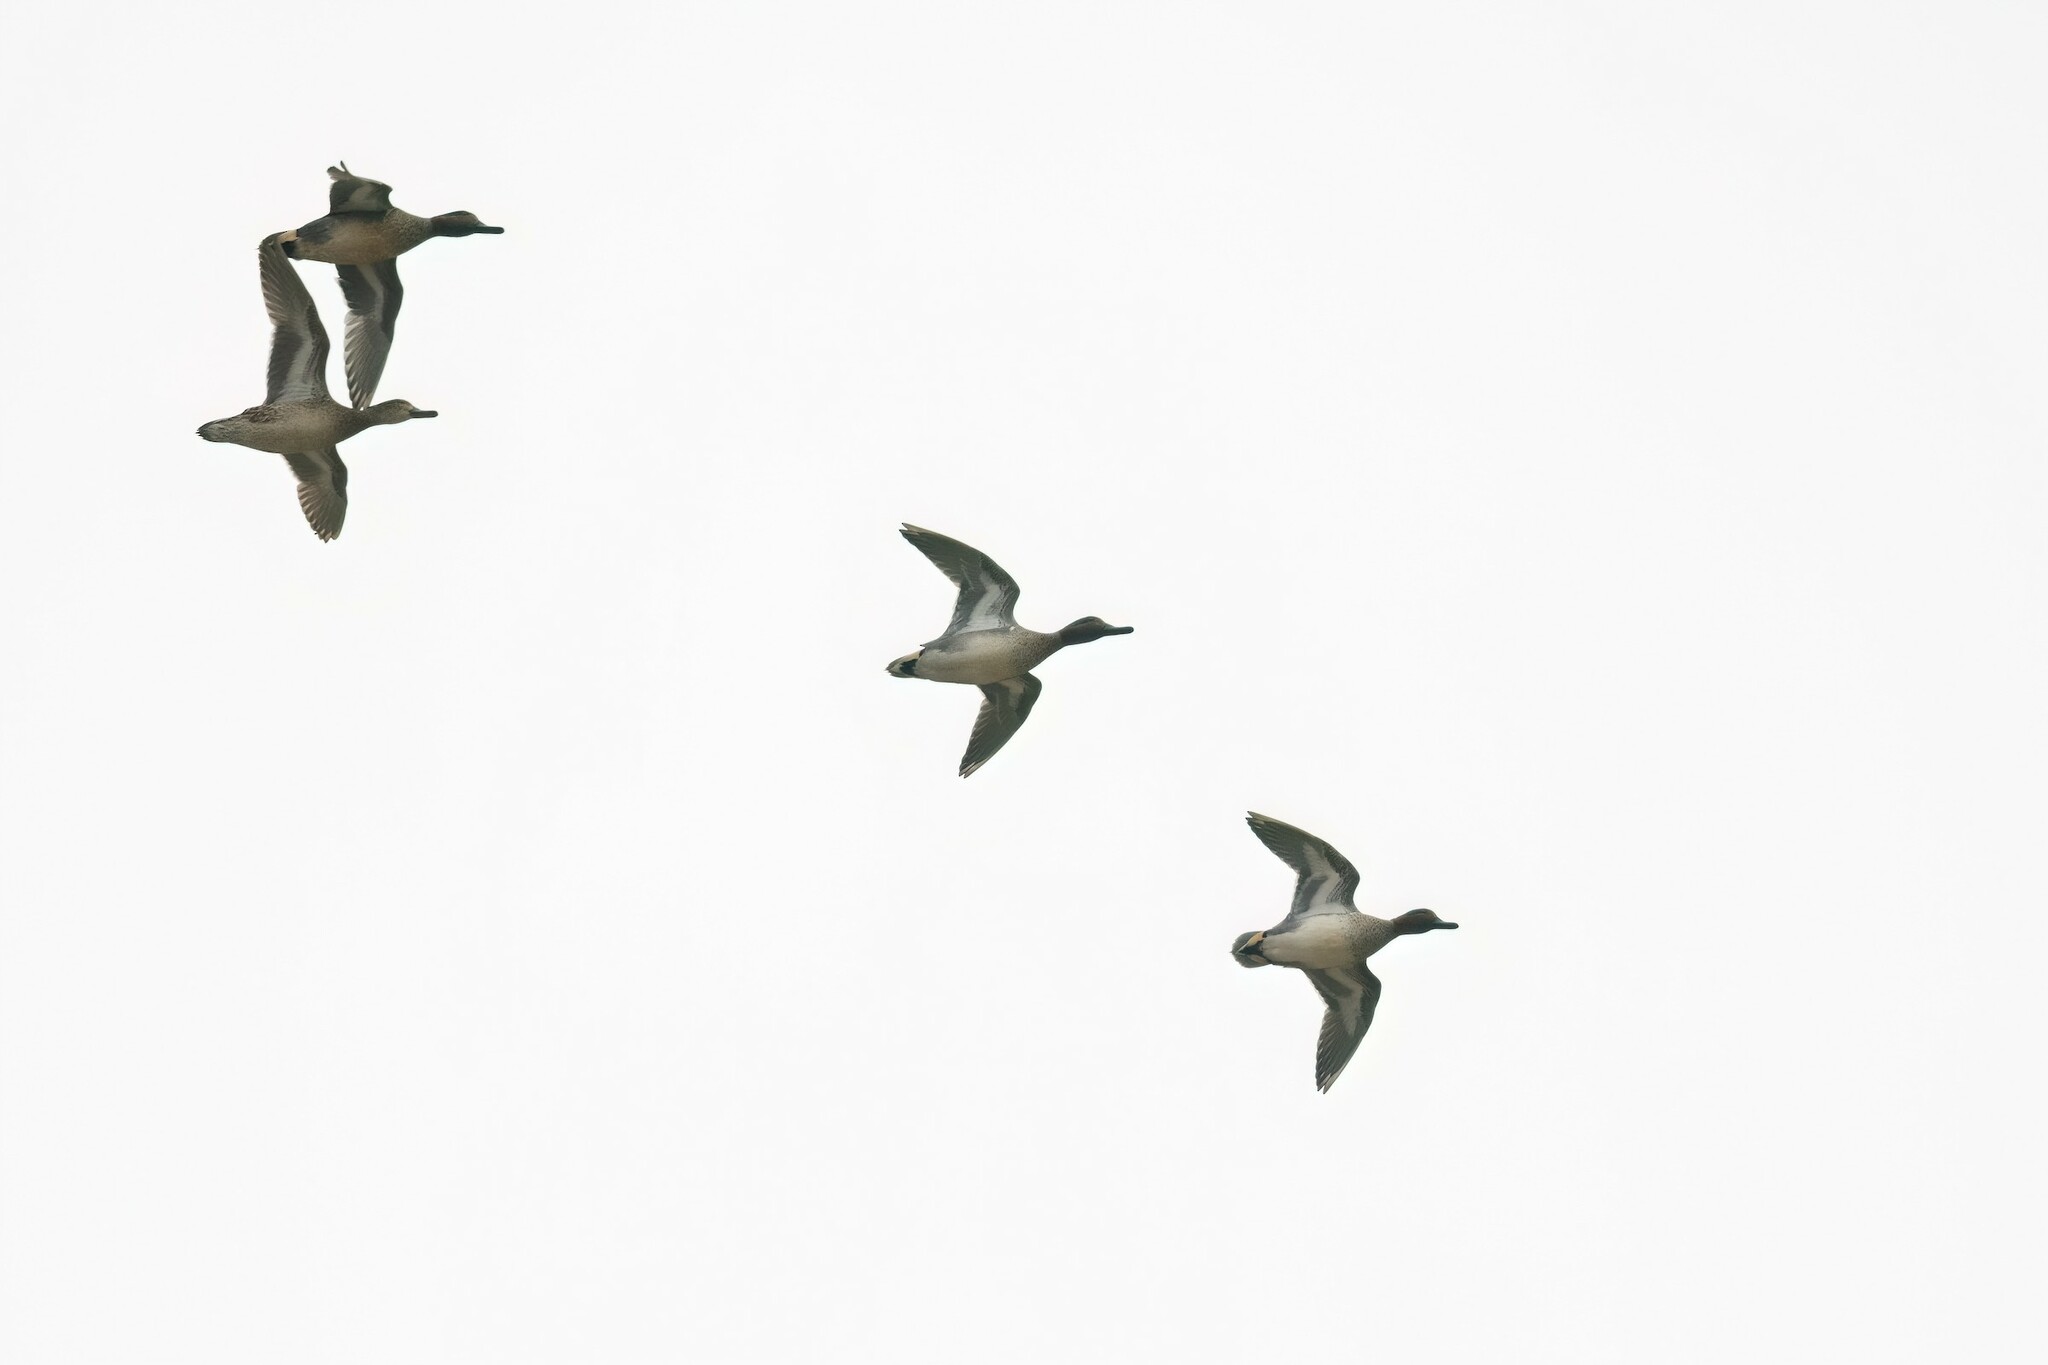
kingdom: Animalia
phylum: Chordata
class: Aves
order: Anseriformes
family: Anatidae
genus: Anas
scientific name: Anas crecca
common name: Eurasian teal
